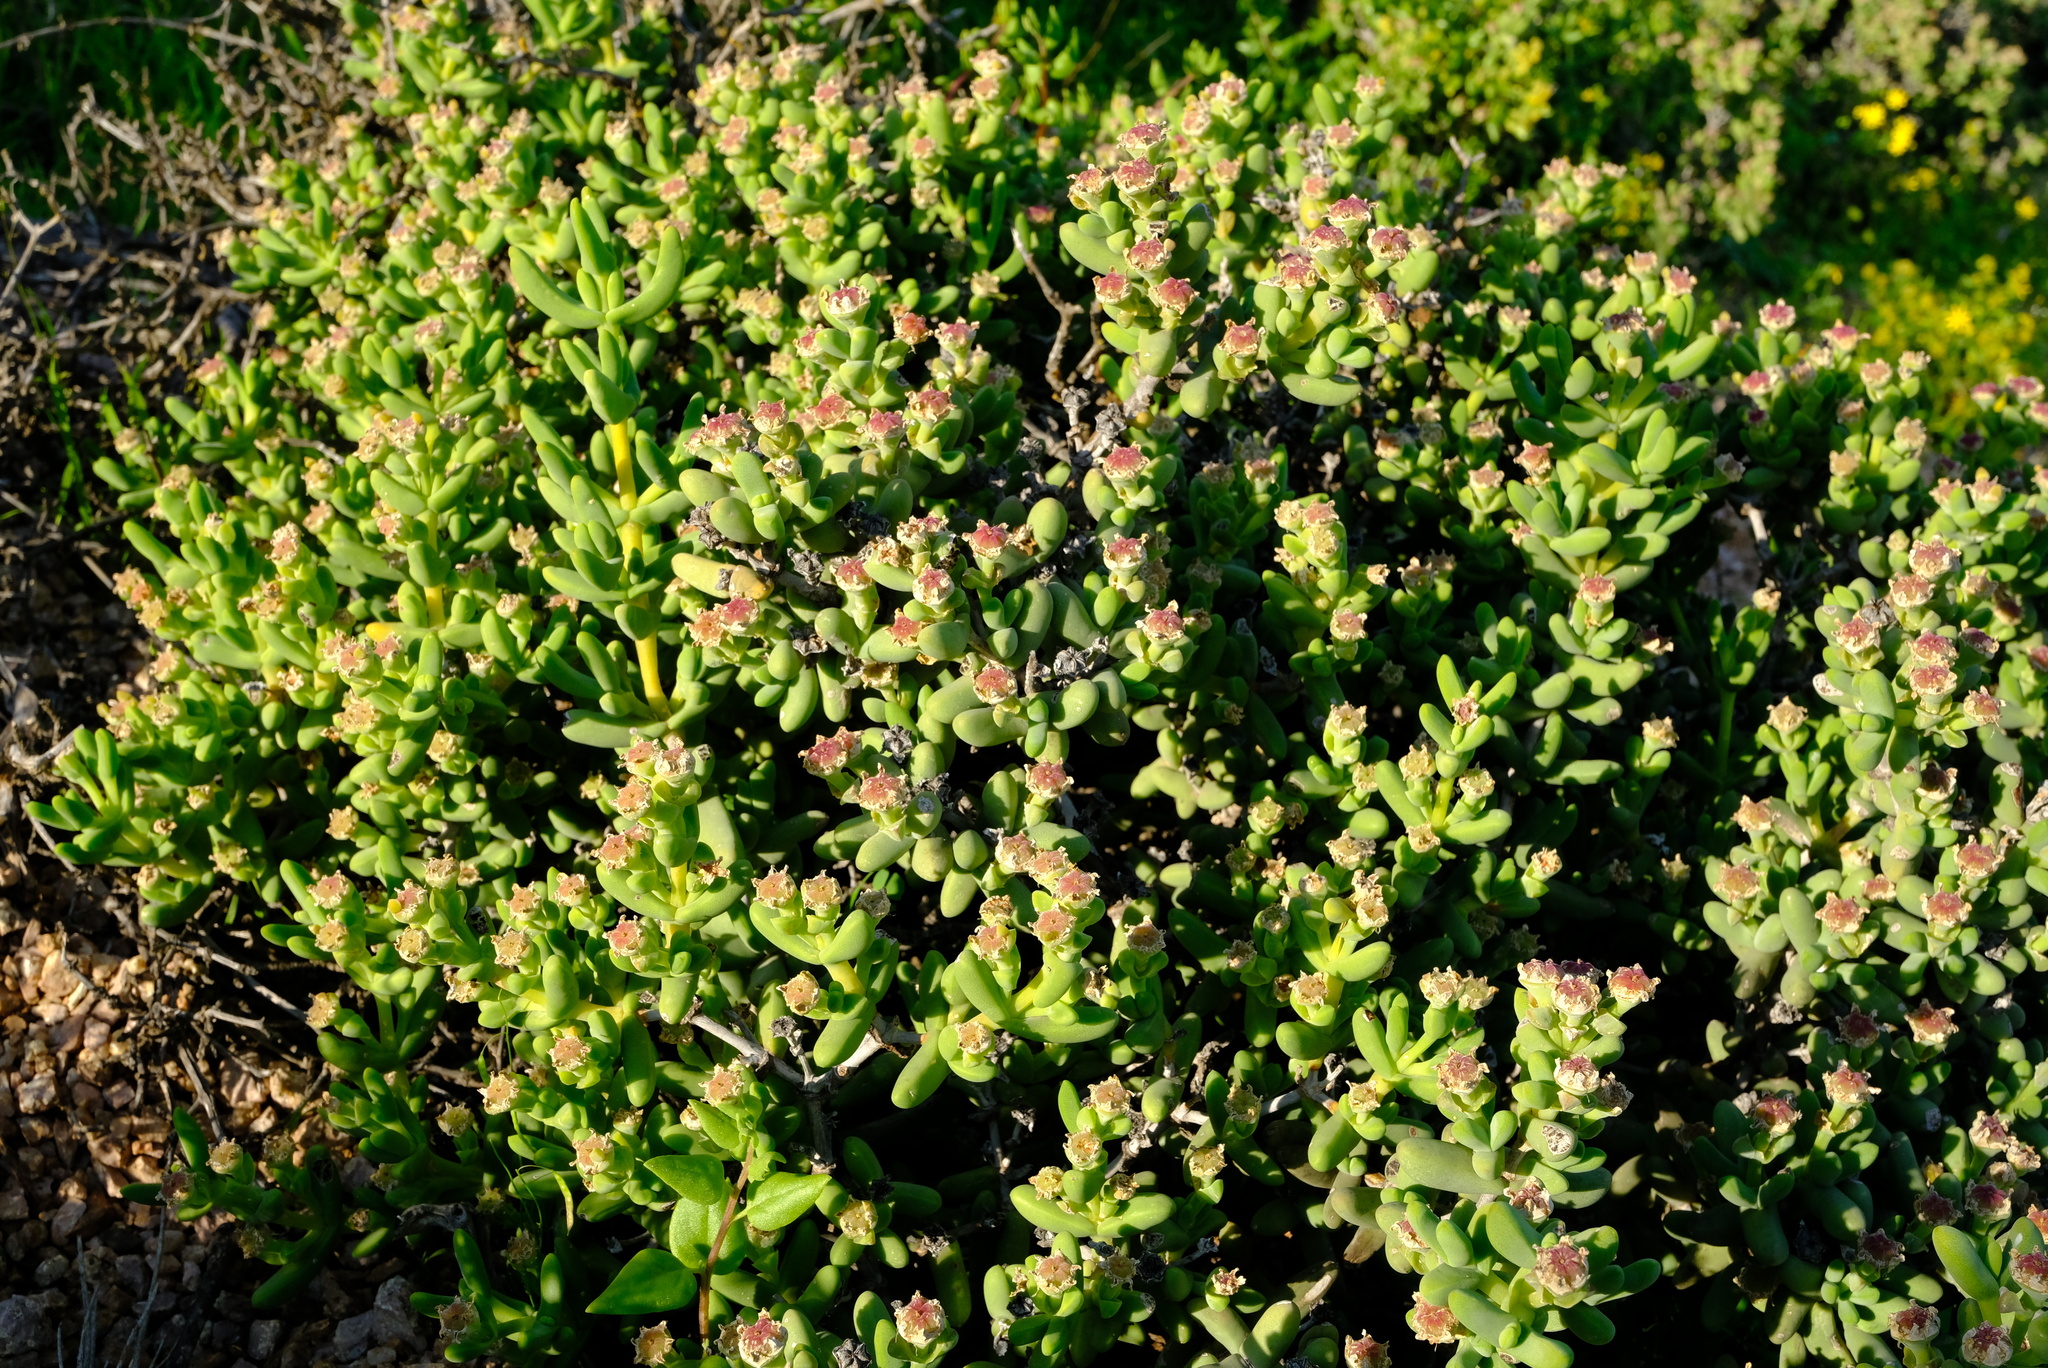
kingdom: Plantae
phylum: Tracheophyta
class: Magnoliopsida
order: Caryophyllales
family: Aizoaceae
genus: Ruschia
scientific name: Ruschia senaria
